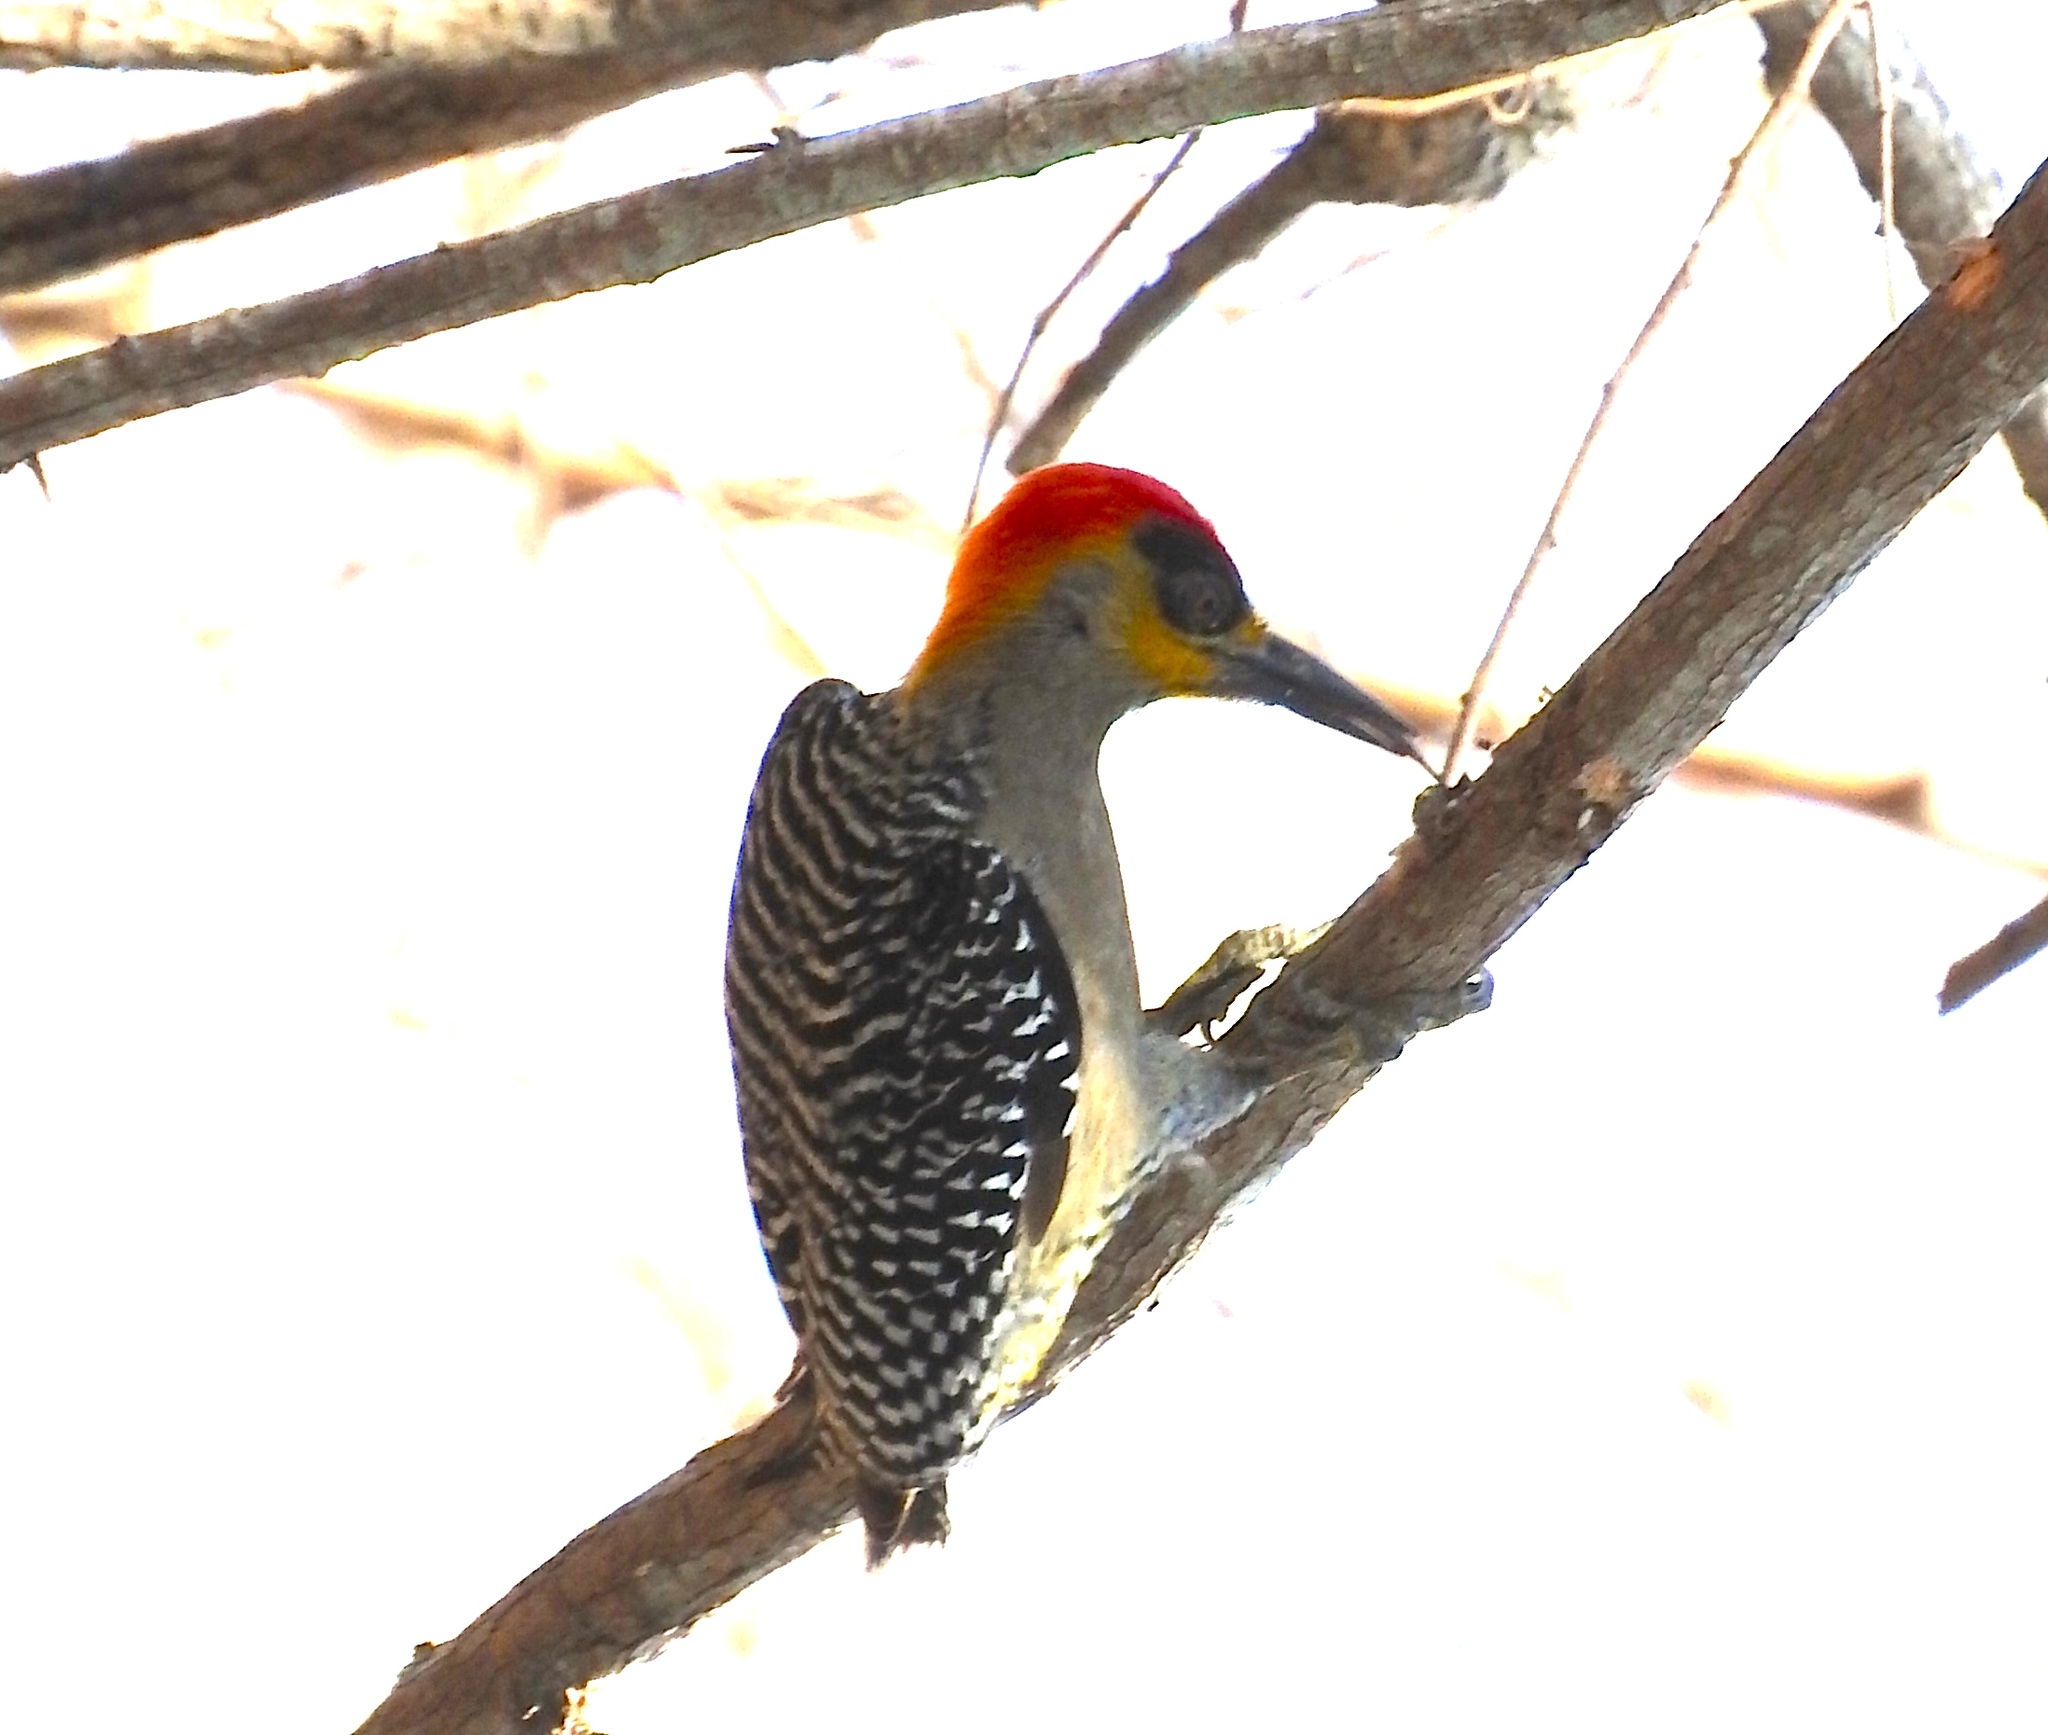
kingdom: Animalia
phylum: Chordata
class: Aves
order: Piciformes
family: Picidae
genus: Melanerpes
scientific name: Melanerpes chrysogenys
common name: Golden-cheeked woodpecker
